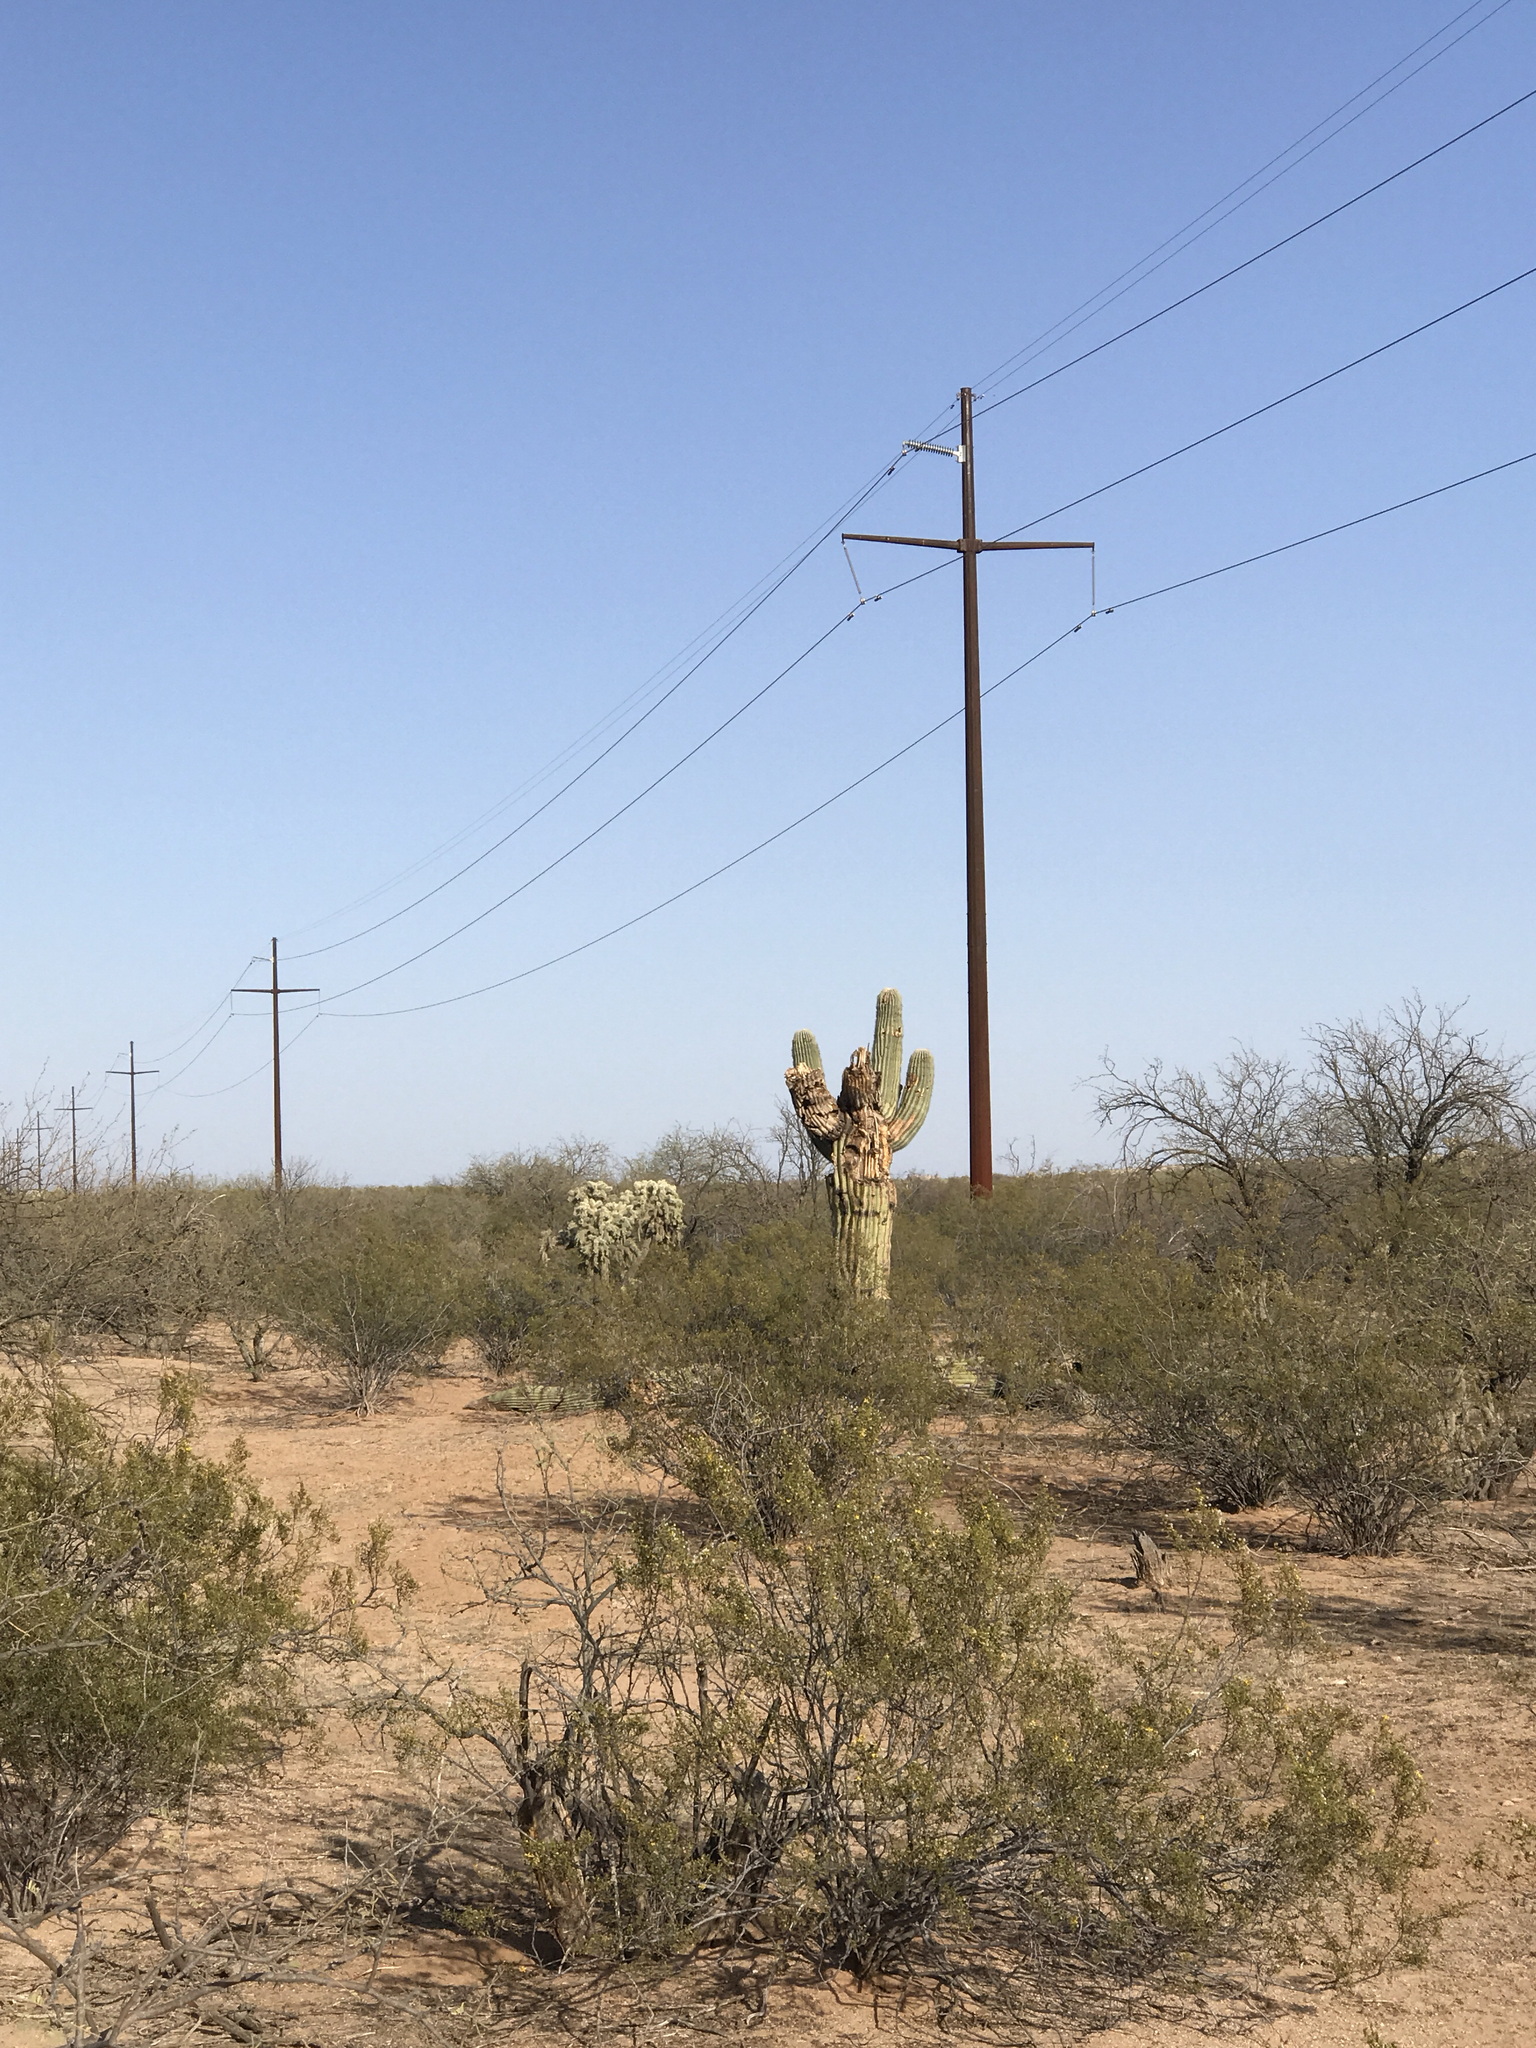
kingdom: Plantae
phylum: Tracheophyta
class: Magnoliopsida
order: Zygophyllales
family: Zygophyllaceae
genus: Larrea
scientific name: Larrea tridentata
